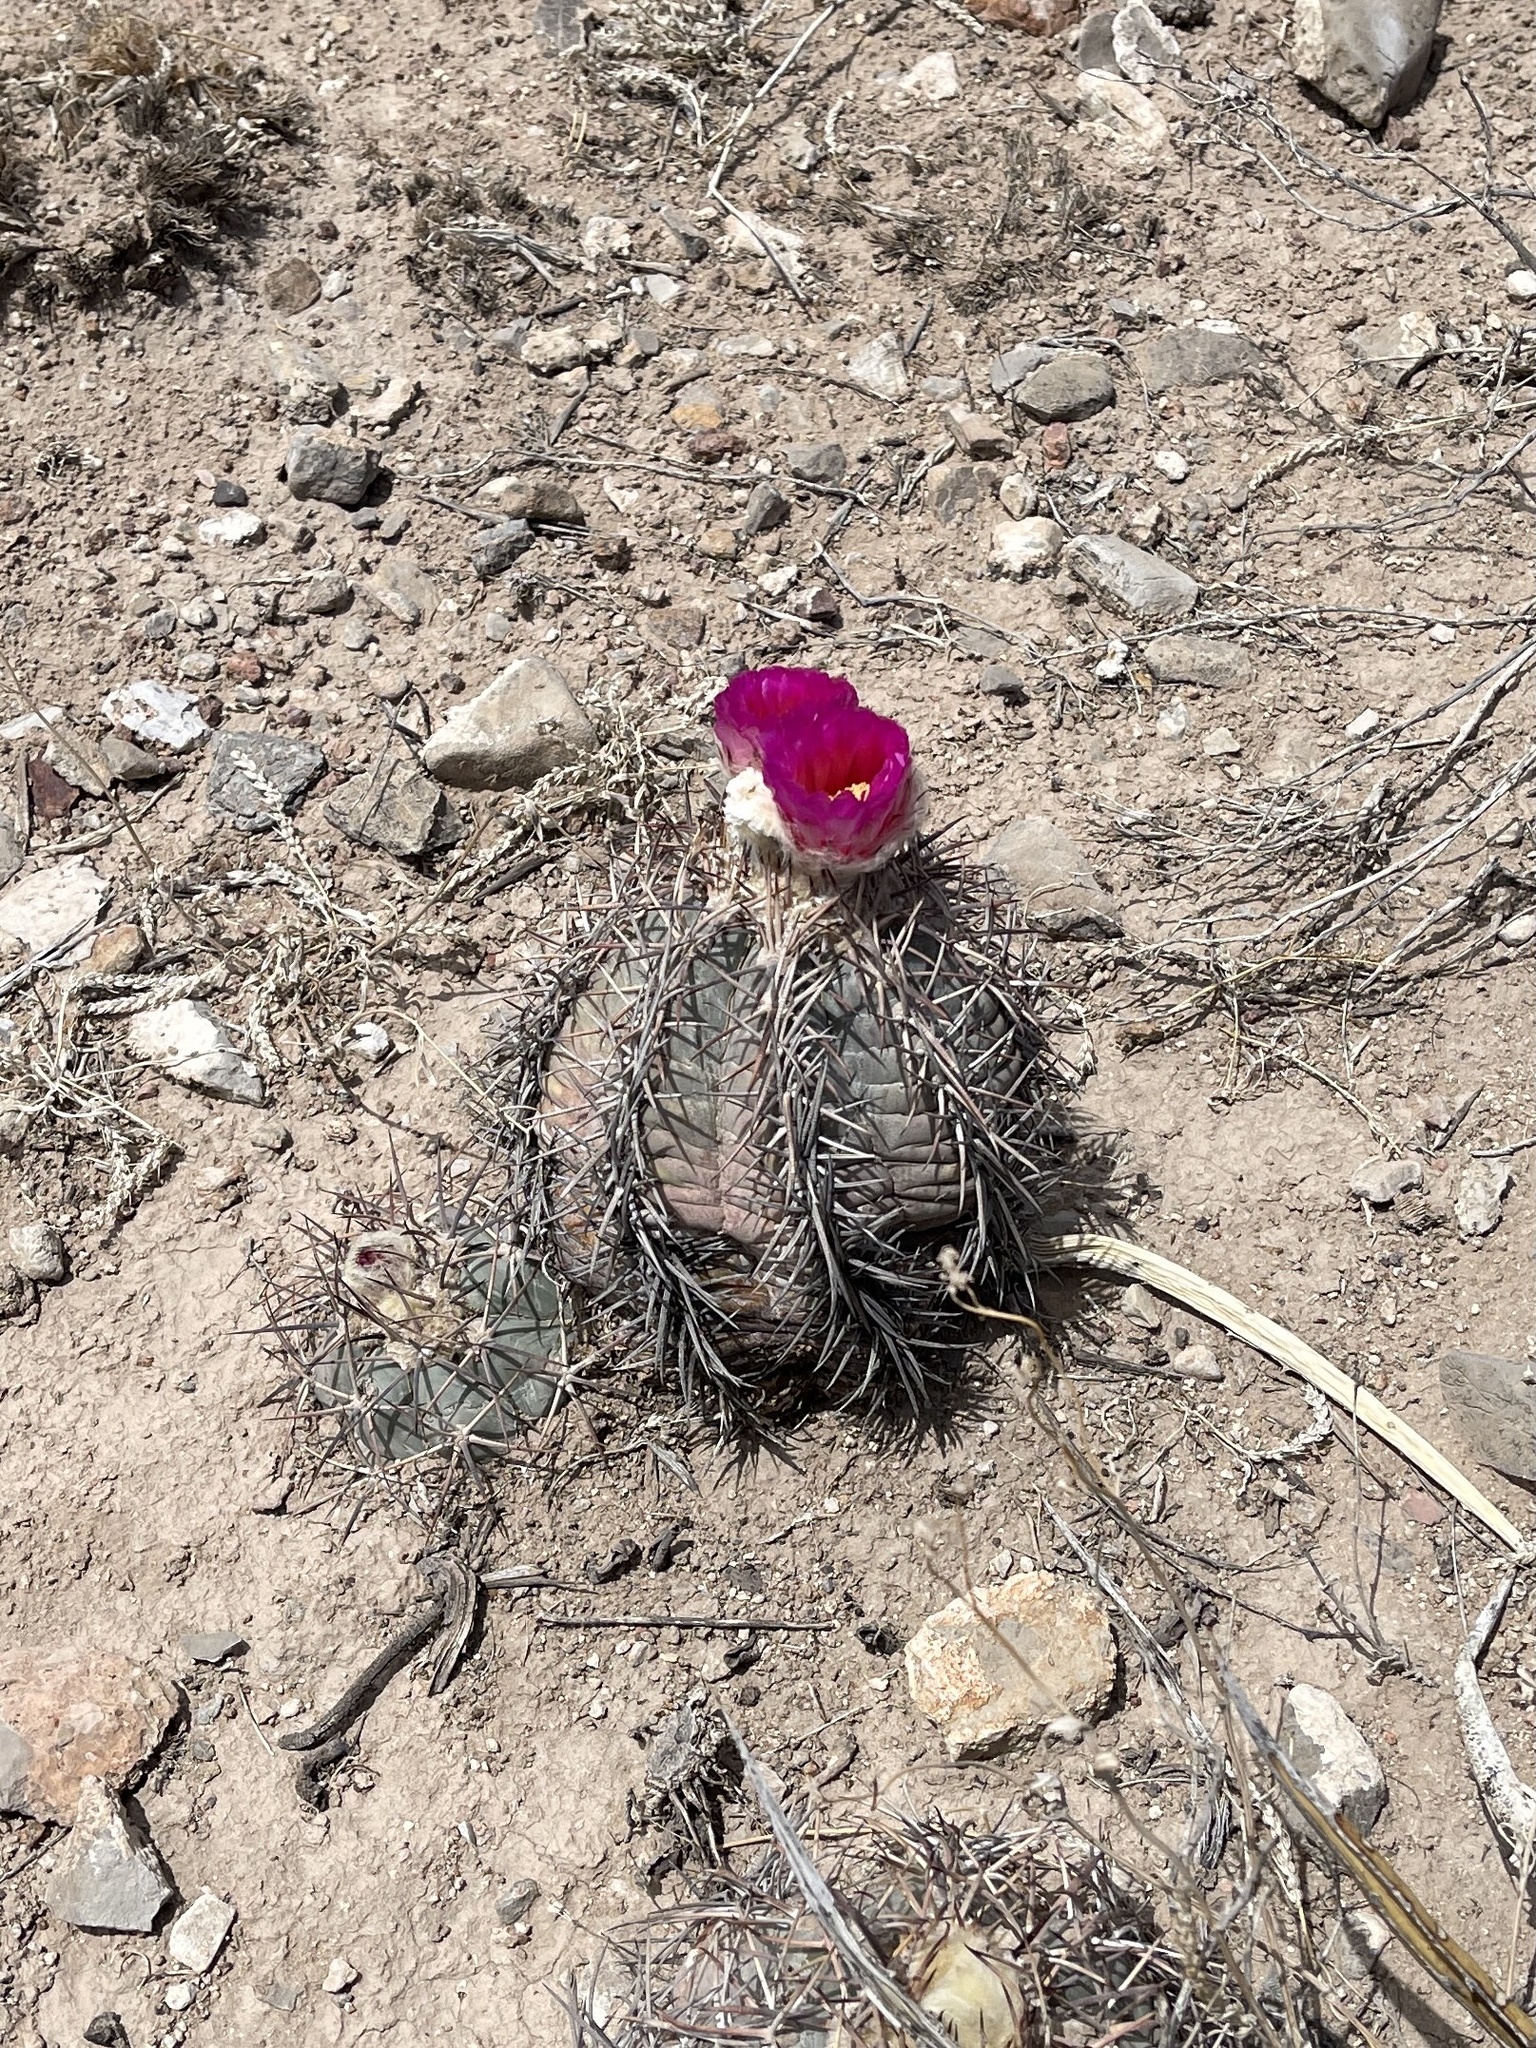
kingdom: Plantae
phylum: Tracheophyta
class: Magnoliopsida
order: Caryophyllales
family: Cactaceae
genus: Echinocactus
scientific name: Echinocactus horizonthalonius
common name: Devilshead
